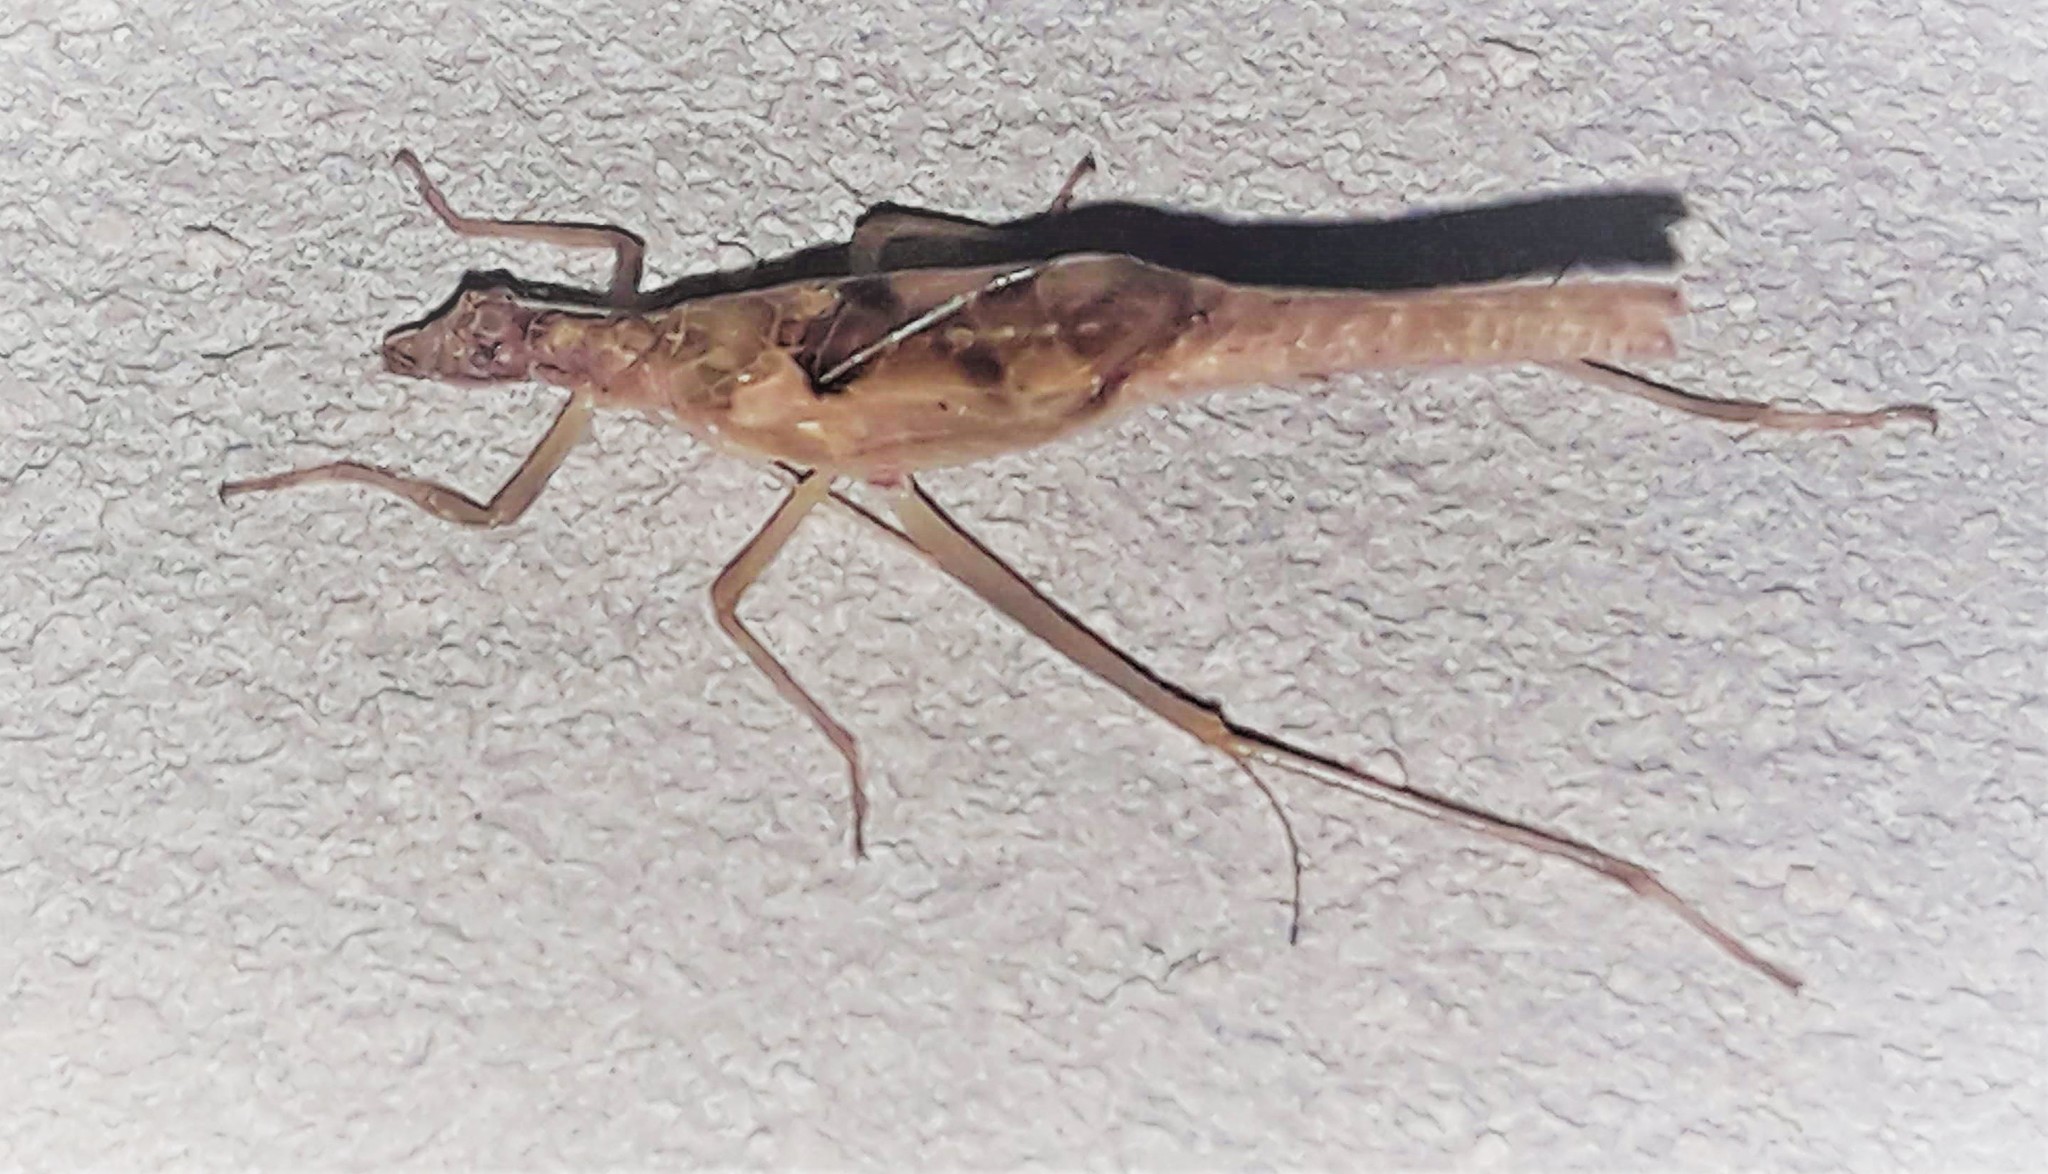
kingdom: Animalia
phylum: Arthropoda
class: Insecta
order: Orthoptera
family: Gryllidae
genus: Neoxabea
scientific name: Neoxabea ottei
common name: Otte's tree cricket
